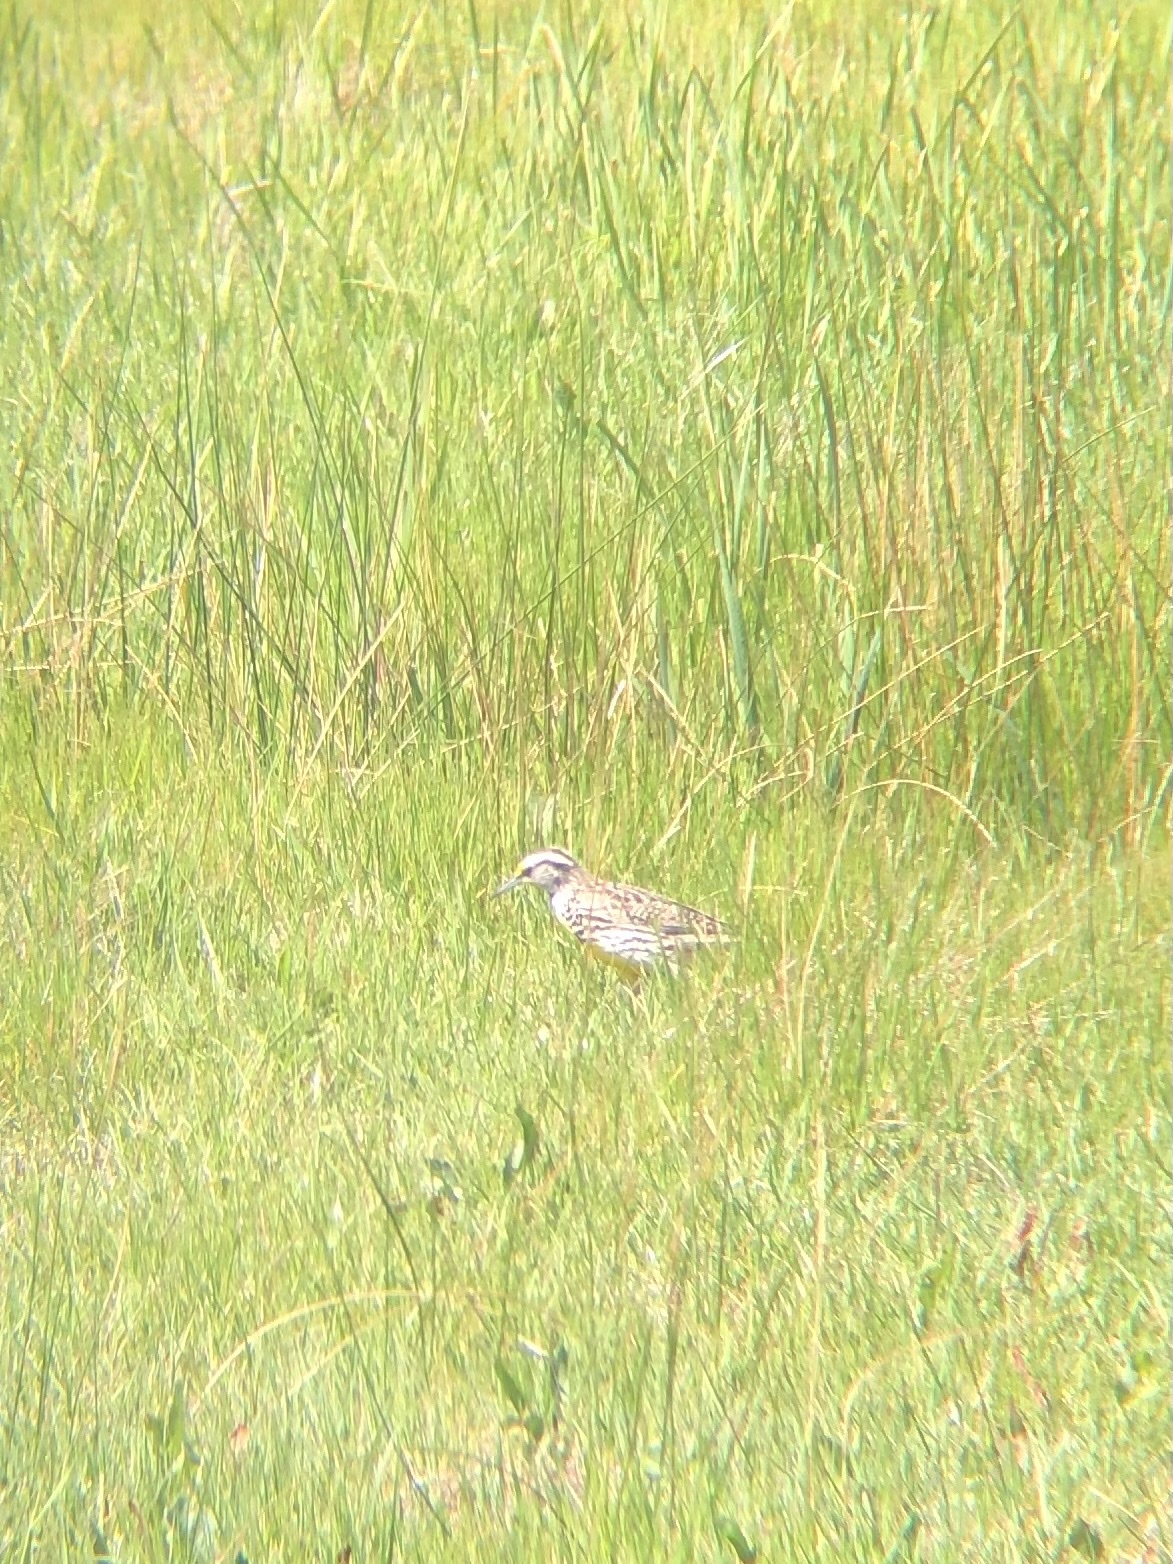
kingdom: Animalia
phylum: Chordata
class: Aves
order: Passeriformes
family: Icteridae
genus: Sturnella
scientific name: Sturnella neglecta
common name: Western meadowlark
